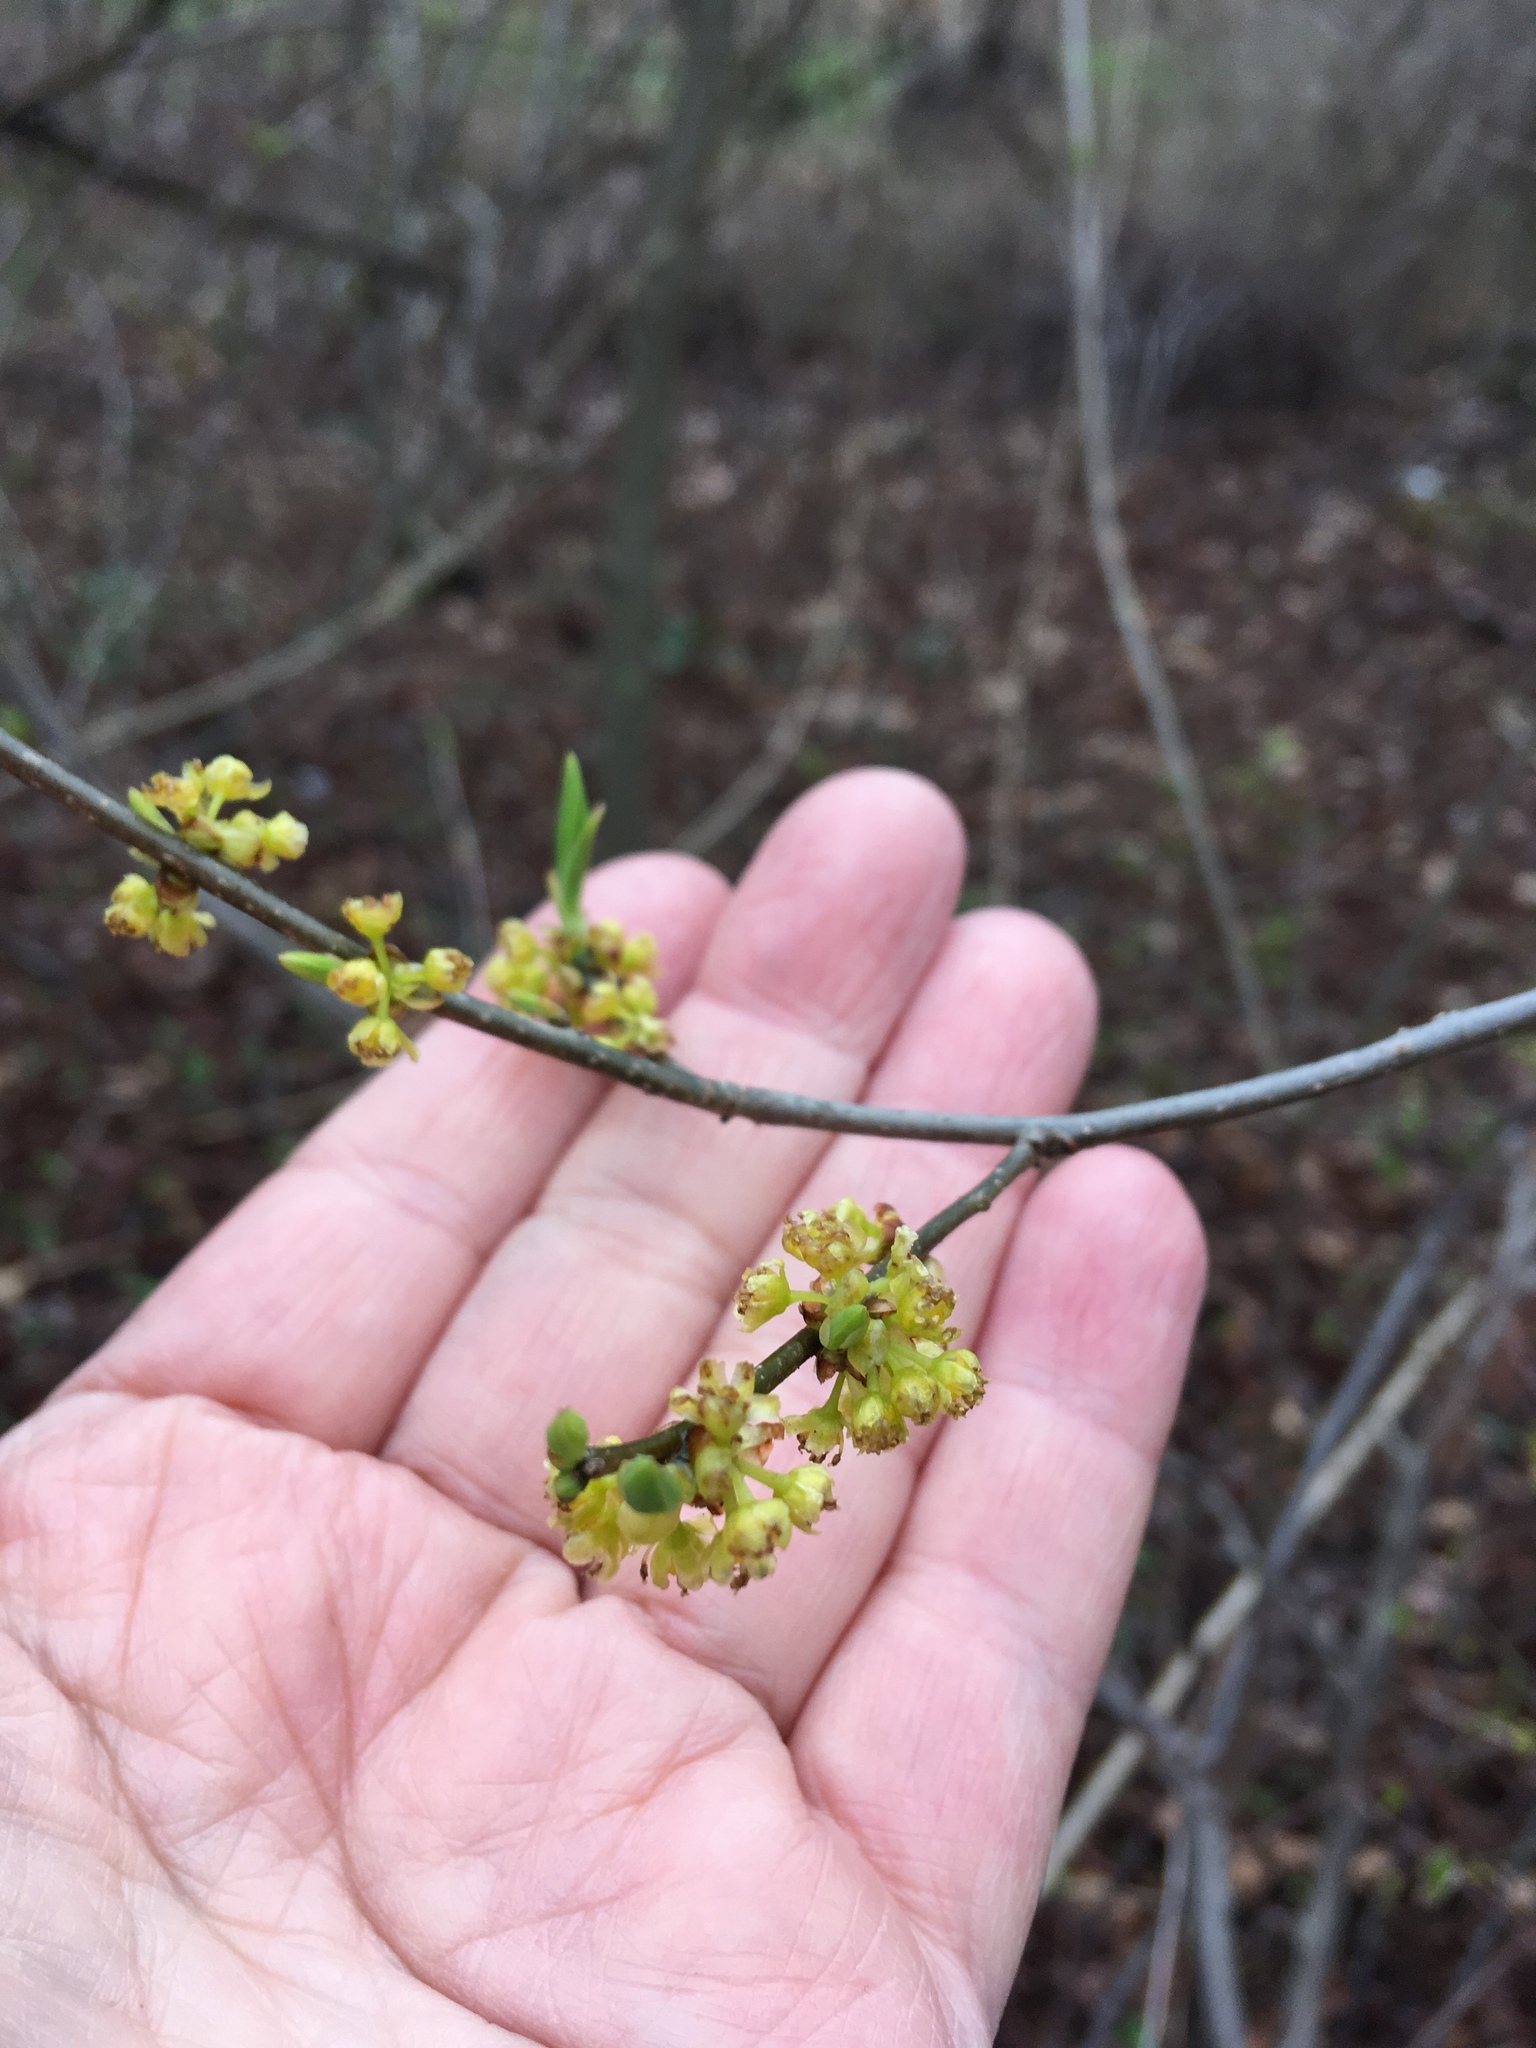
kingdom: Plantae
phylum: Tracheophyta
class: Magnoliopsida
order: Laurales
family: Lauraceae
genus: Lindera
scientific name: Lindera benzoin
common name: Spicebush
